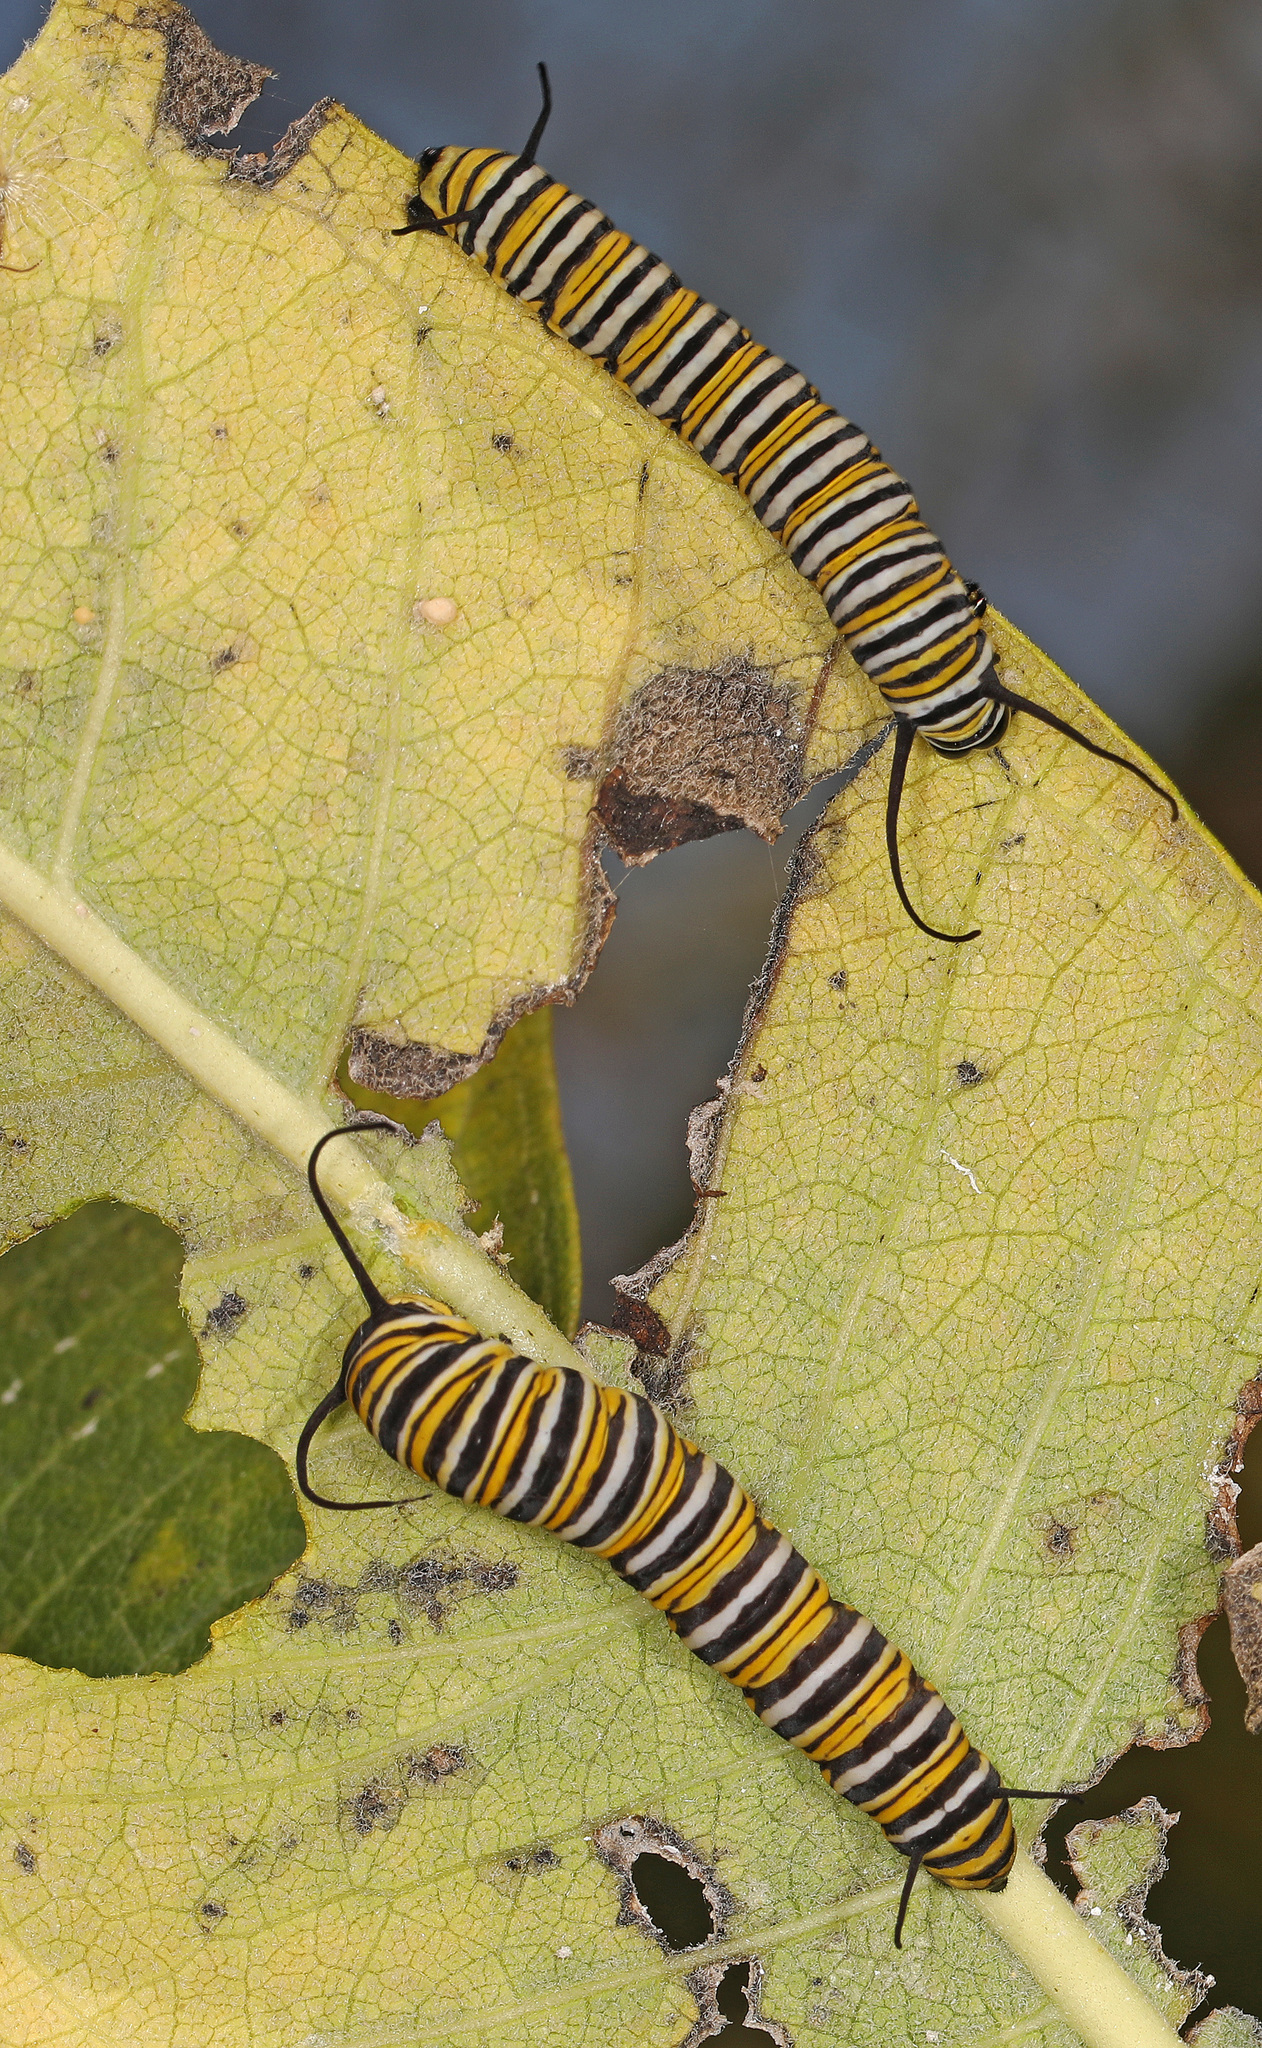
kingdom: Animalia
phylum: Arthropoda
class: Insecta
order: Lepidoptera
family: Nymphalidae
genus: Danaus
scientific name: Danaus plexippus
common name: Monarch
